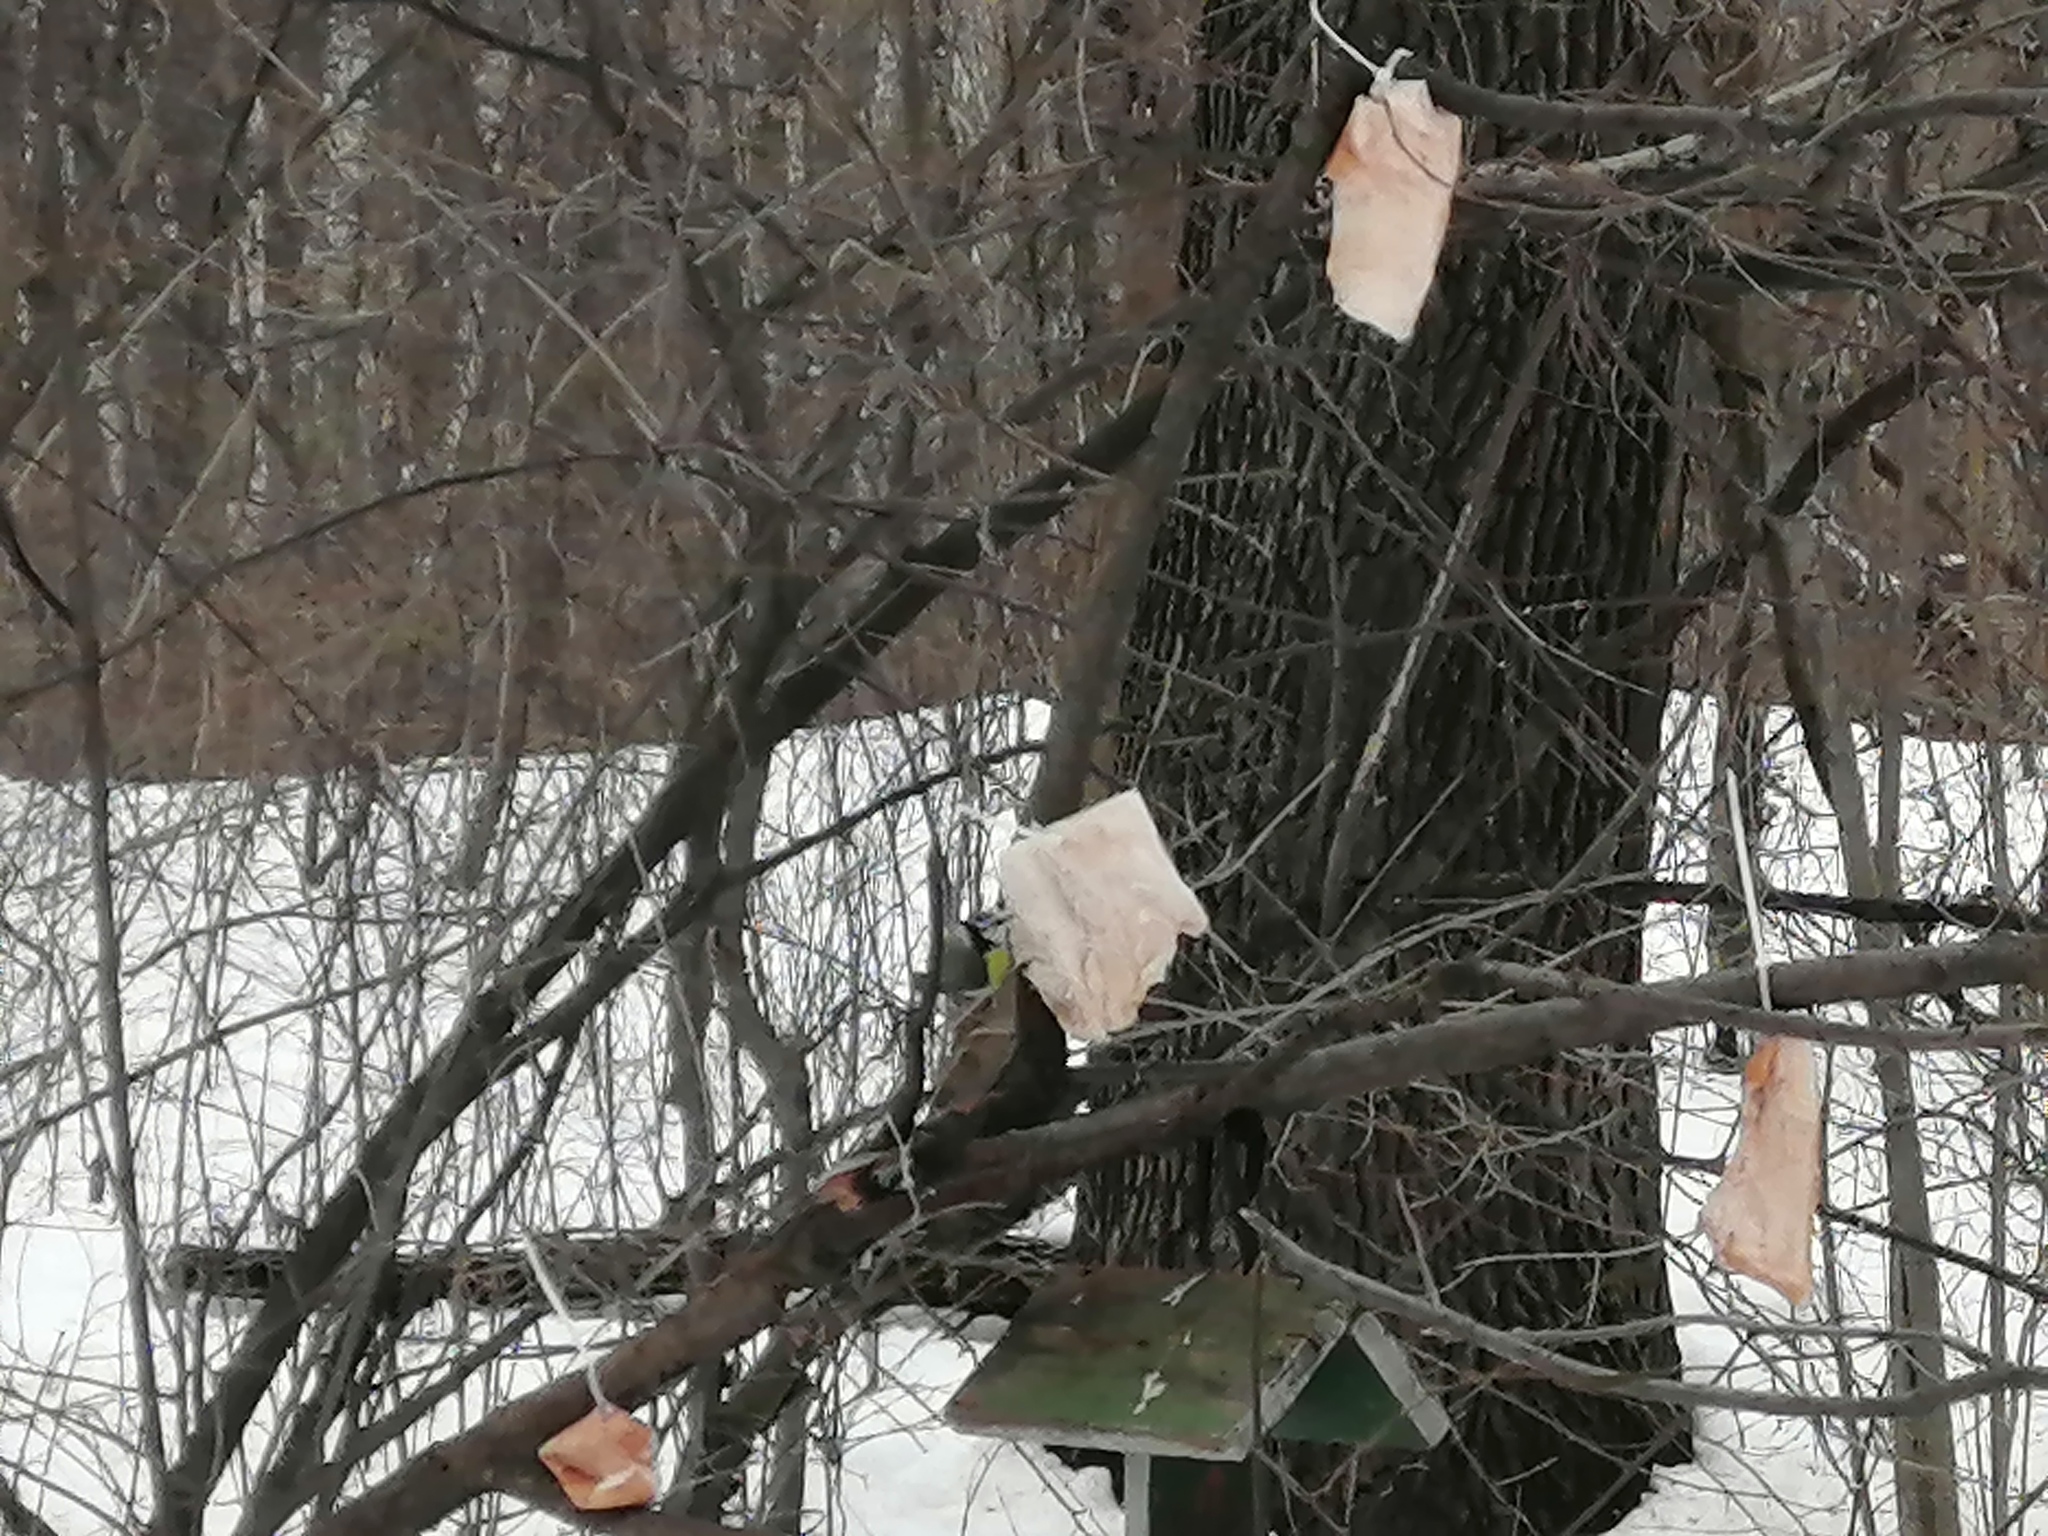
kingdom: Animalia
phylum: Chordata
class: Aves
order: Passeriformes
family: Paridae
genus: Cyanistes
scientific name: Cyanistes caeruleus
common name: Eurasian blue tit
